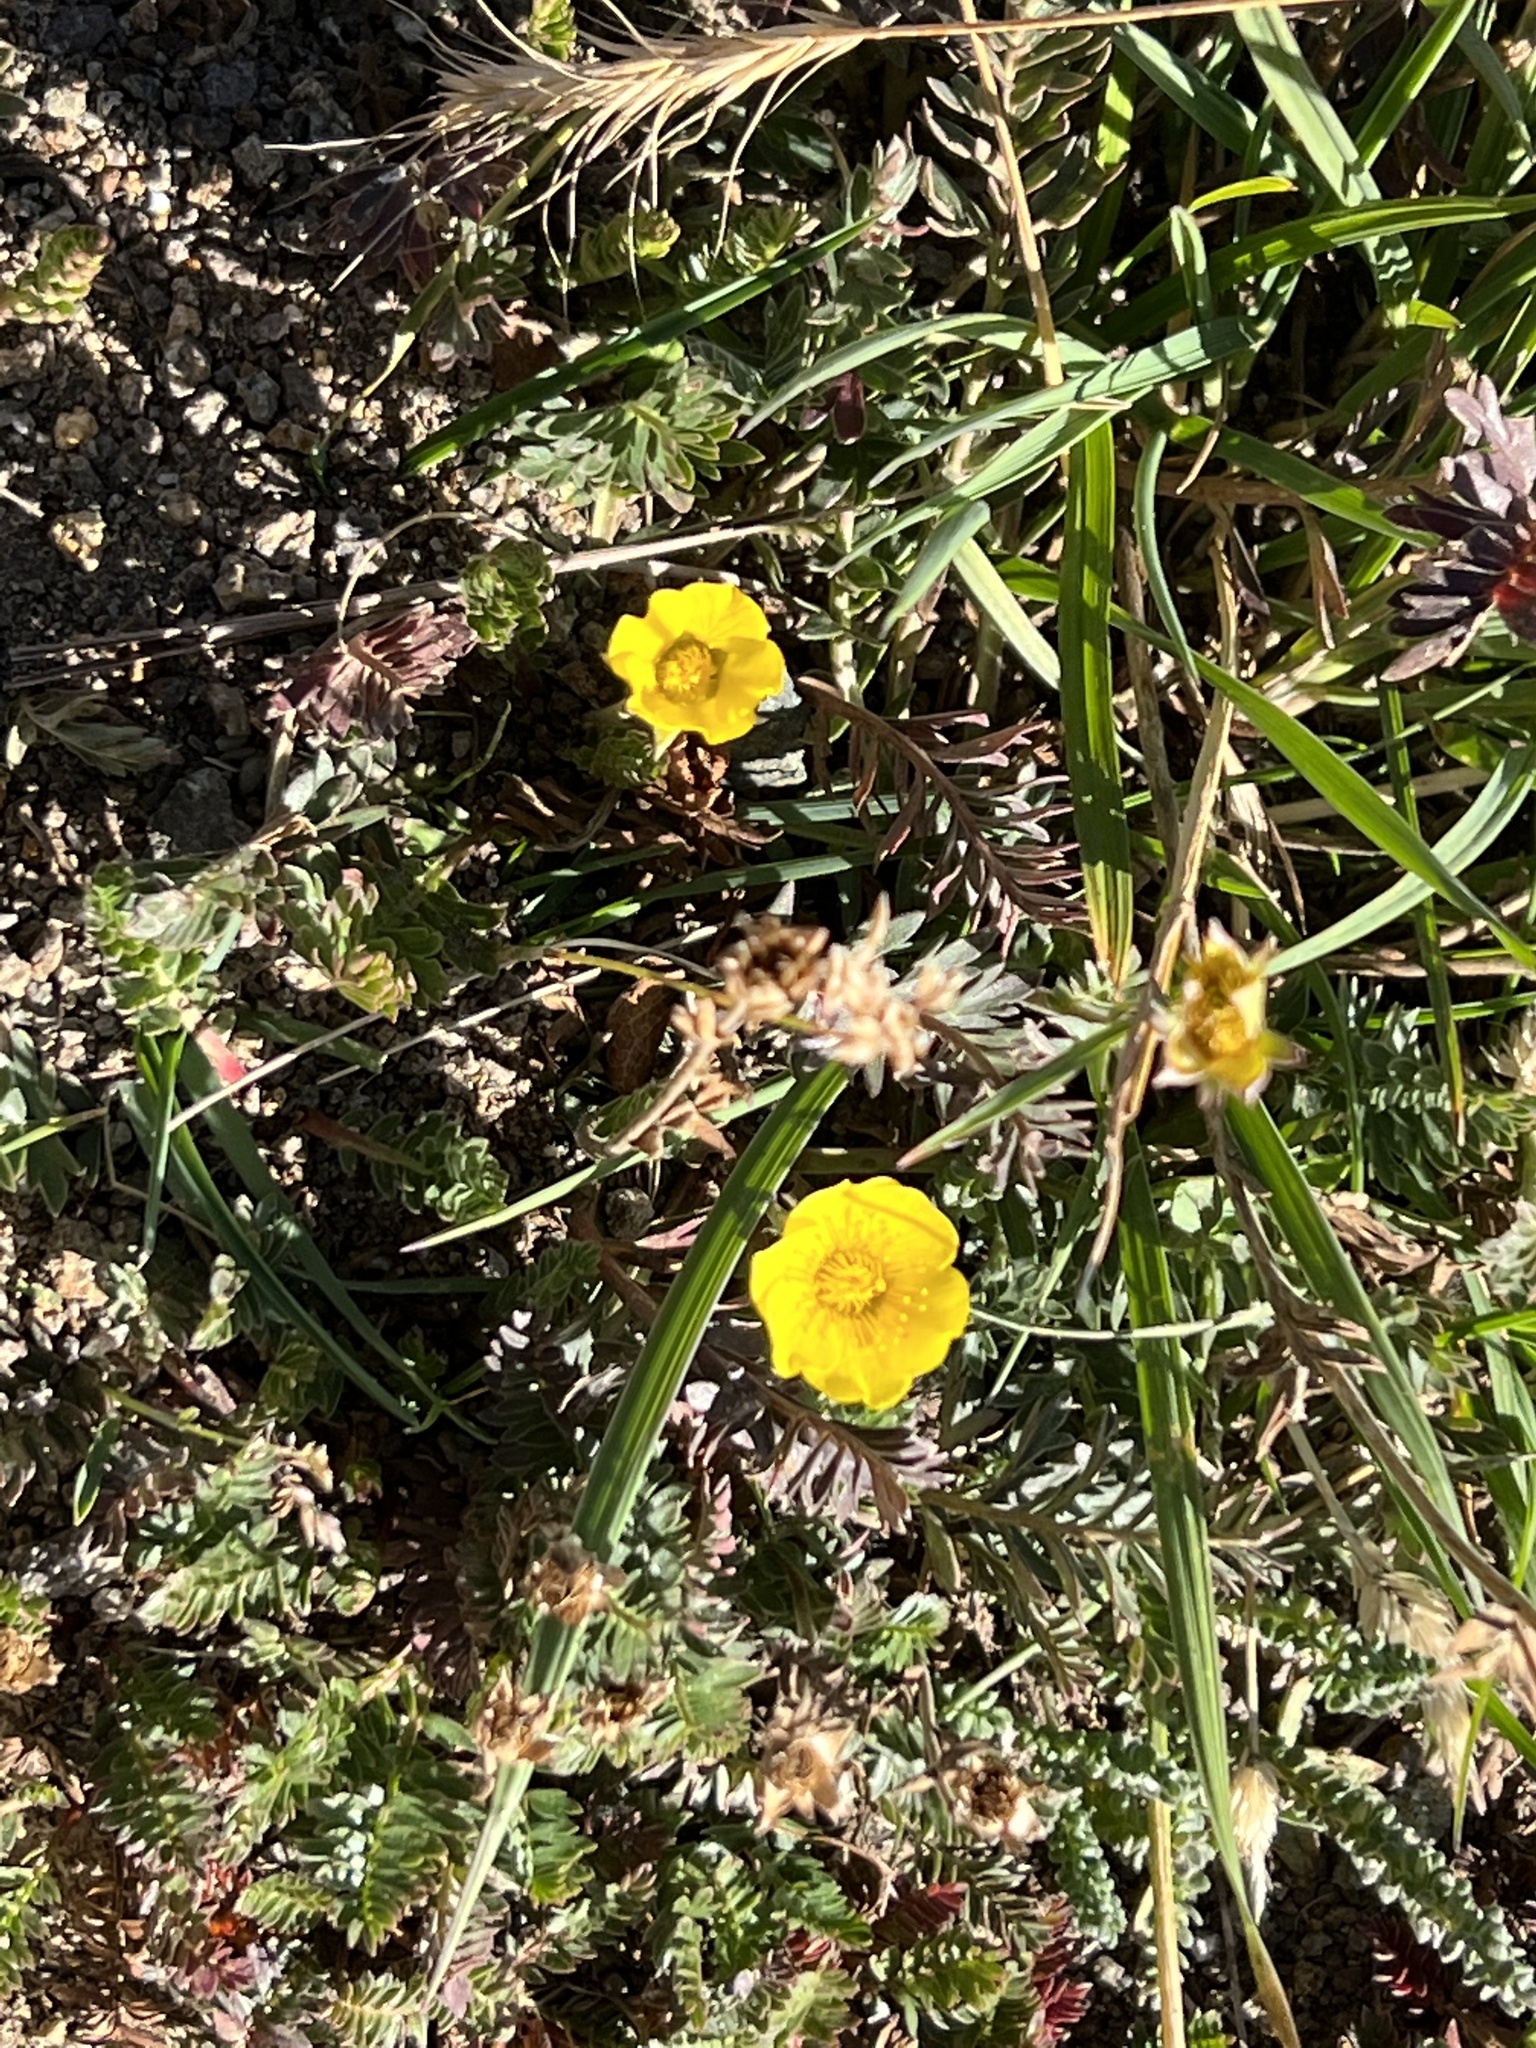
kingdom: Plantae
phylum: Tracheophyta
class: Magnoliopsida
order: Rosales
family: Rosaceae
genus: Geum
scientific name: Geum rossii
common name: Alpine avens
